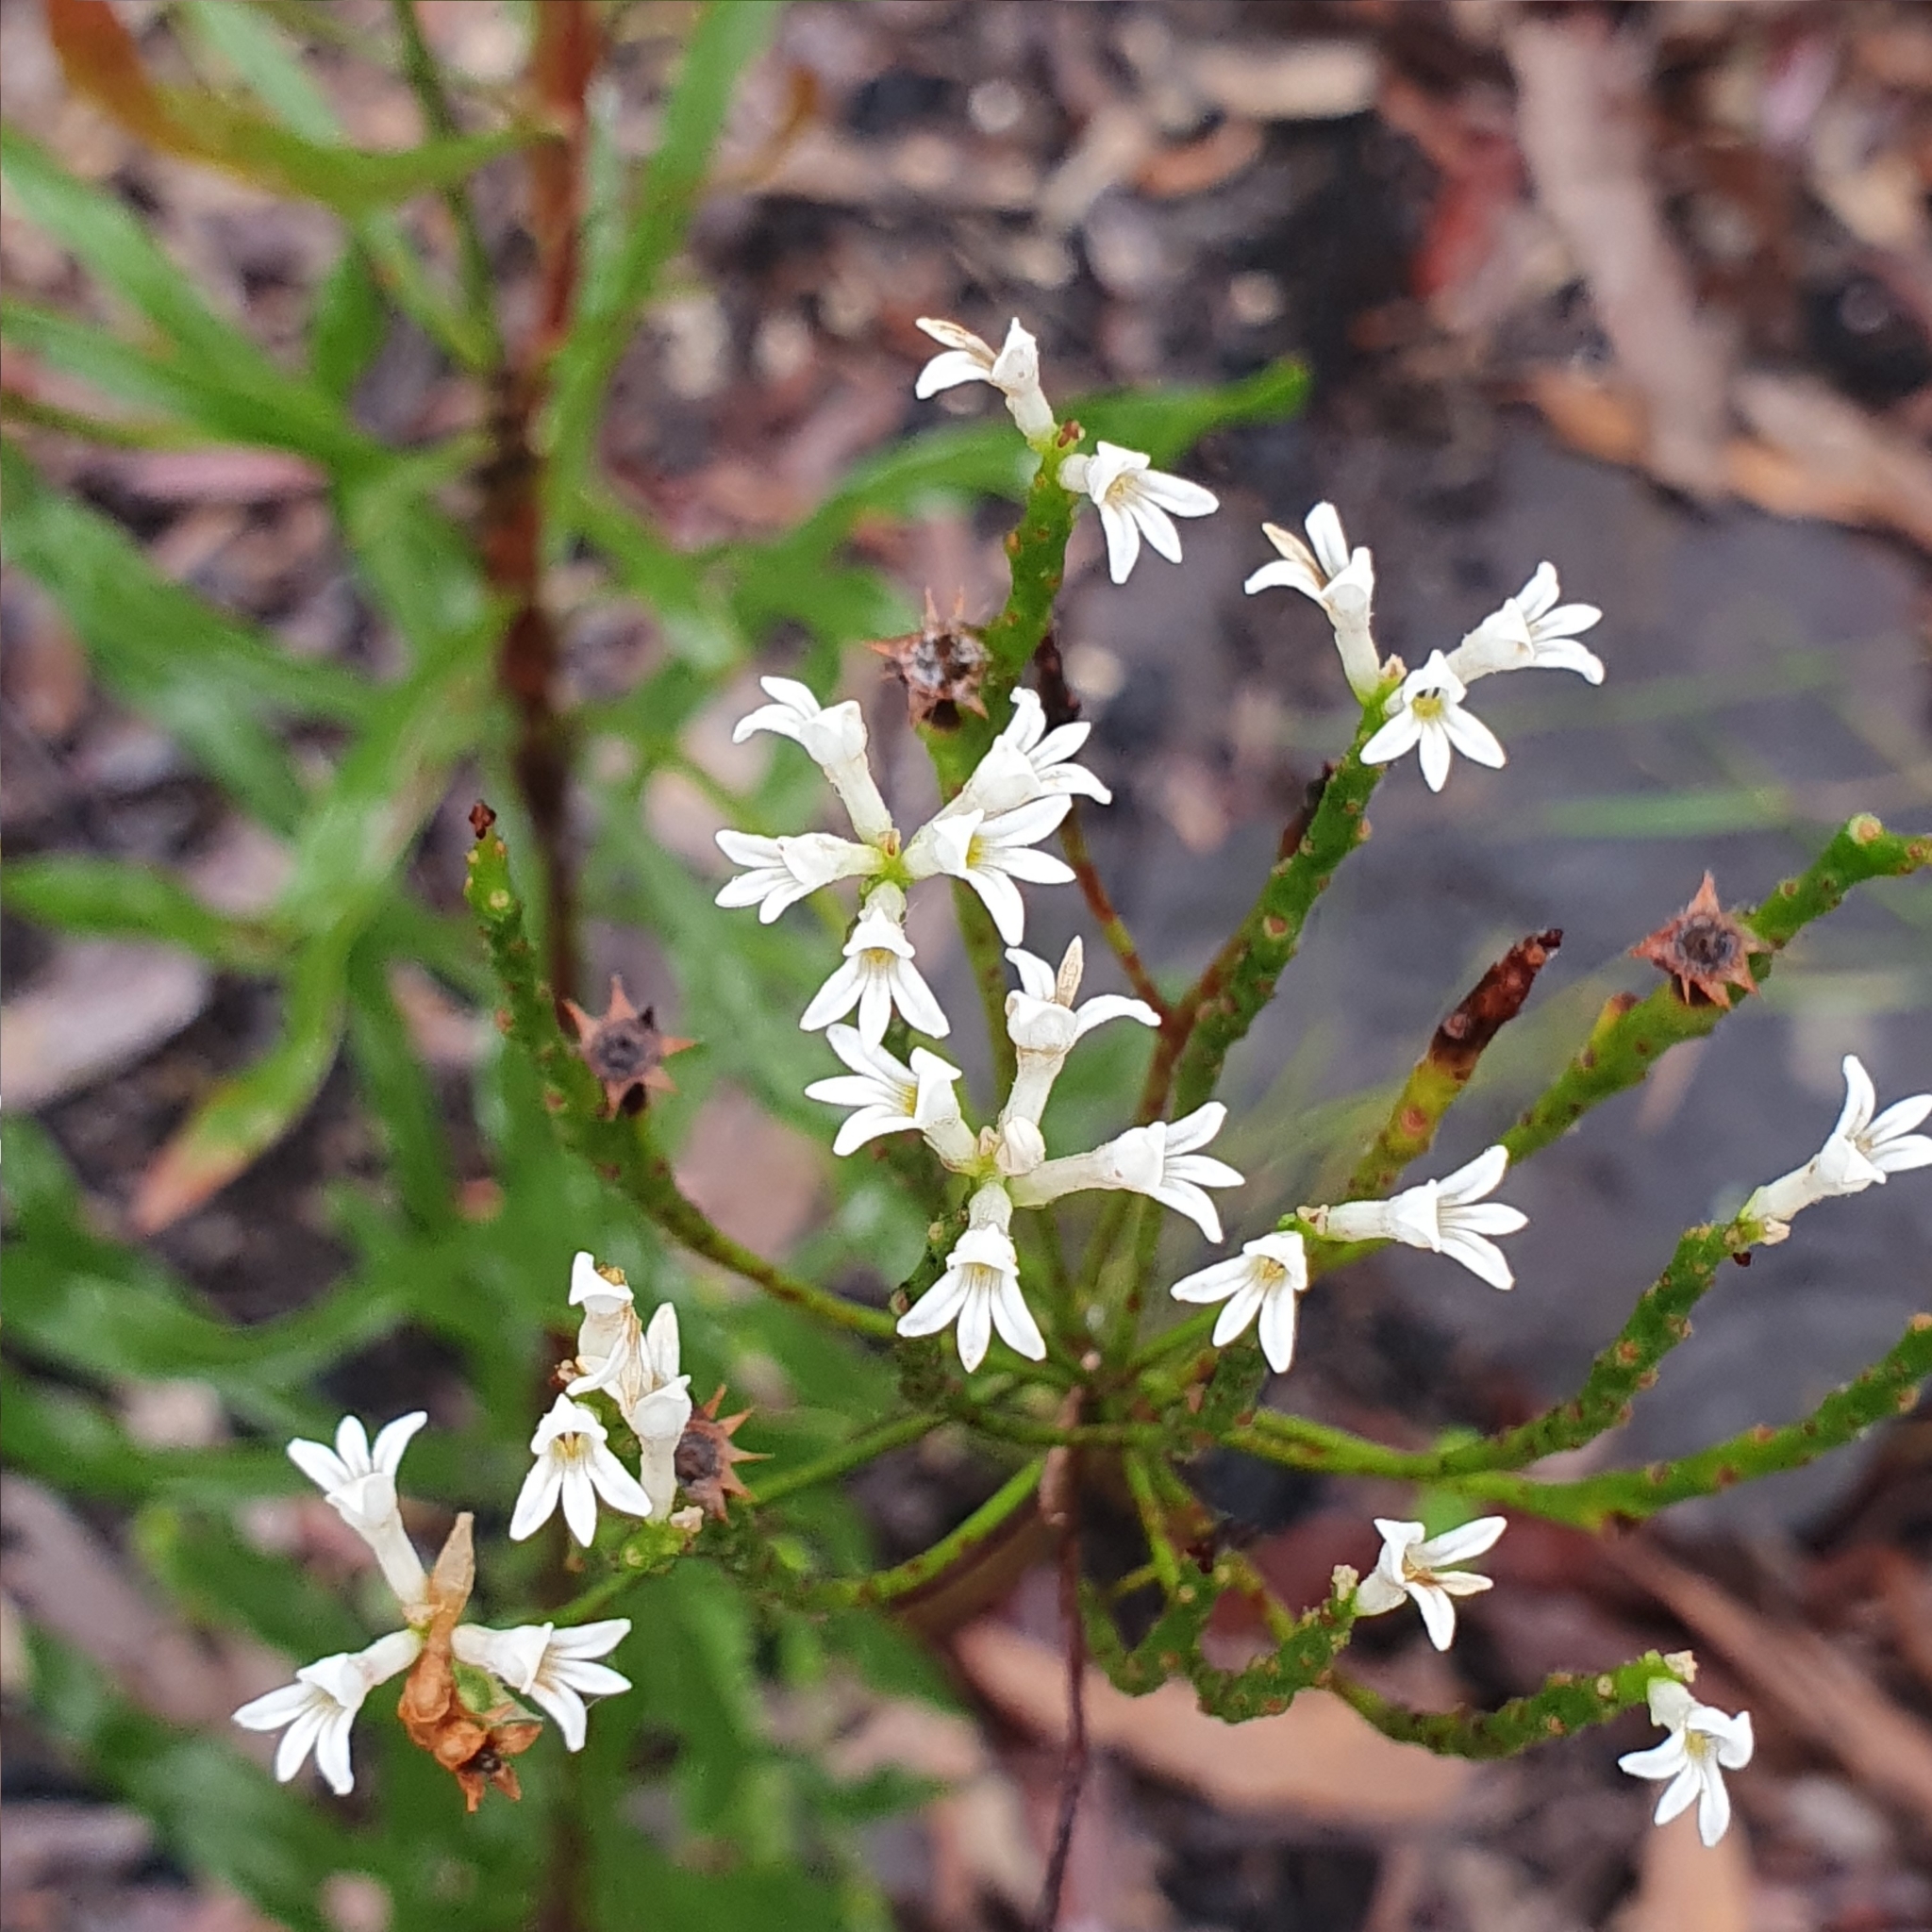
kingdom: Plantae
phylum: Tracheophyta
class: Magnoliopsida
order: Proteales
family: Proteaceae
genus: Conospermum
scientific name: Conospermum longifolium
